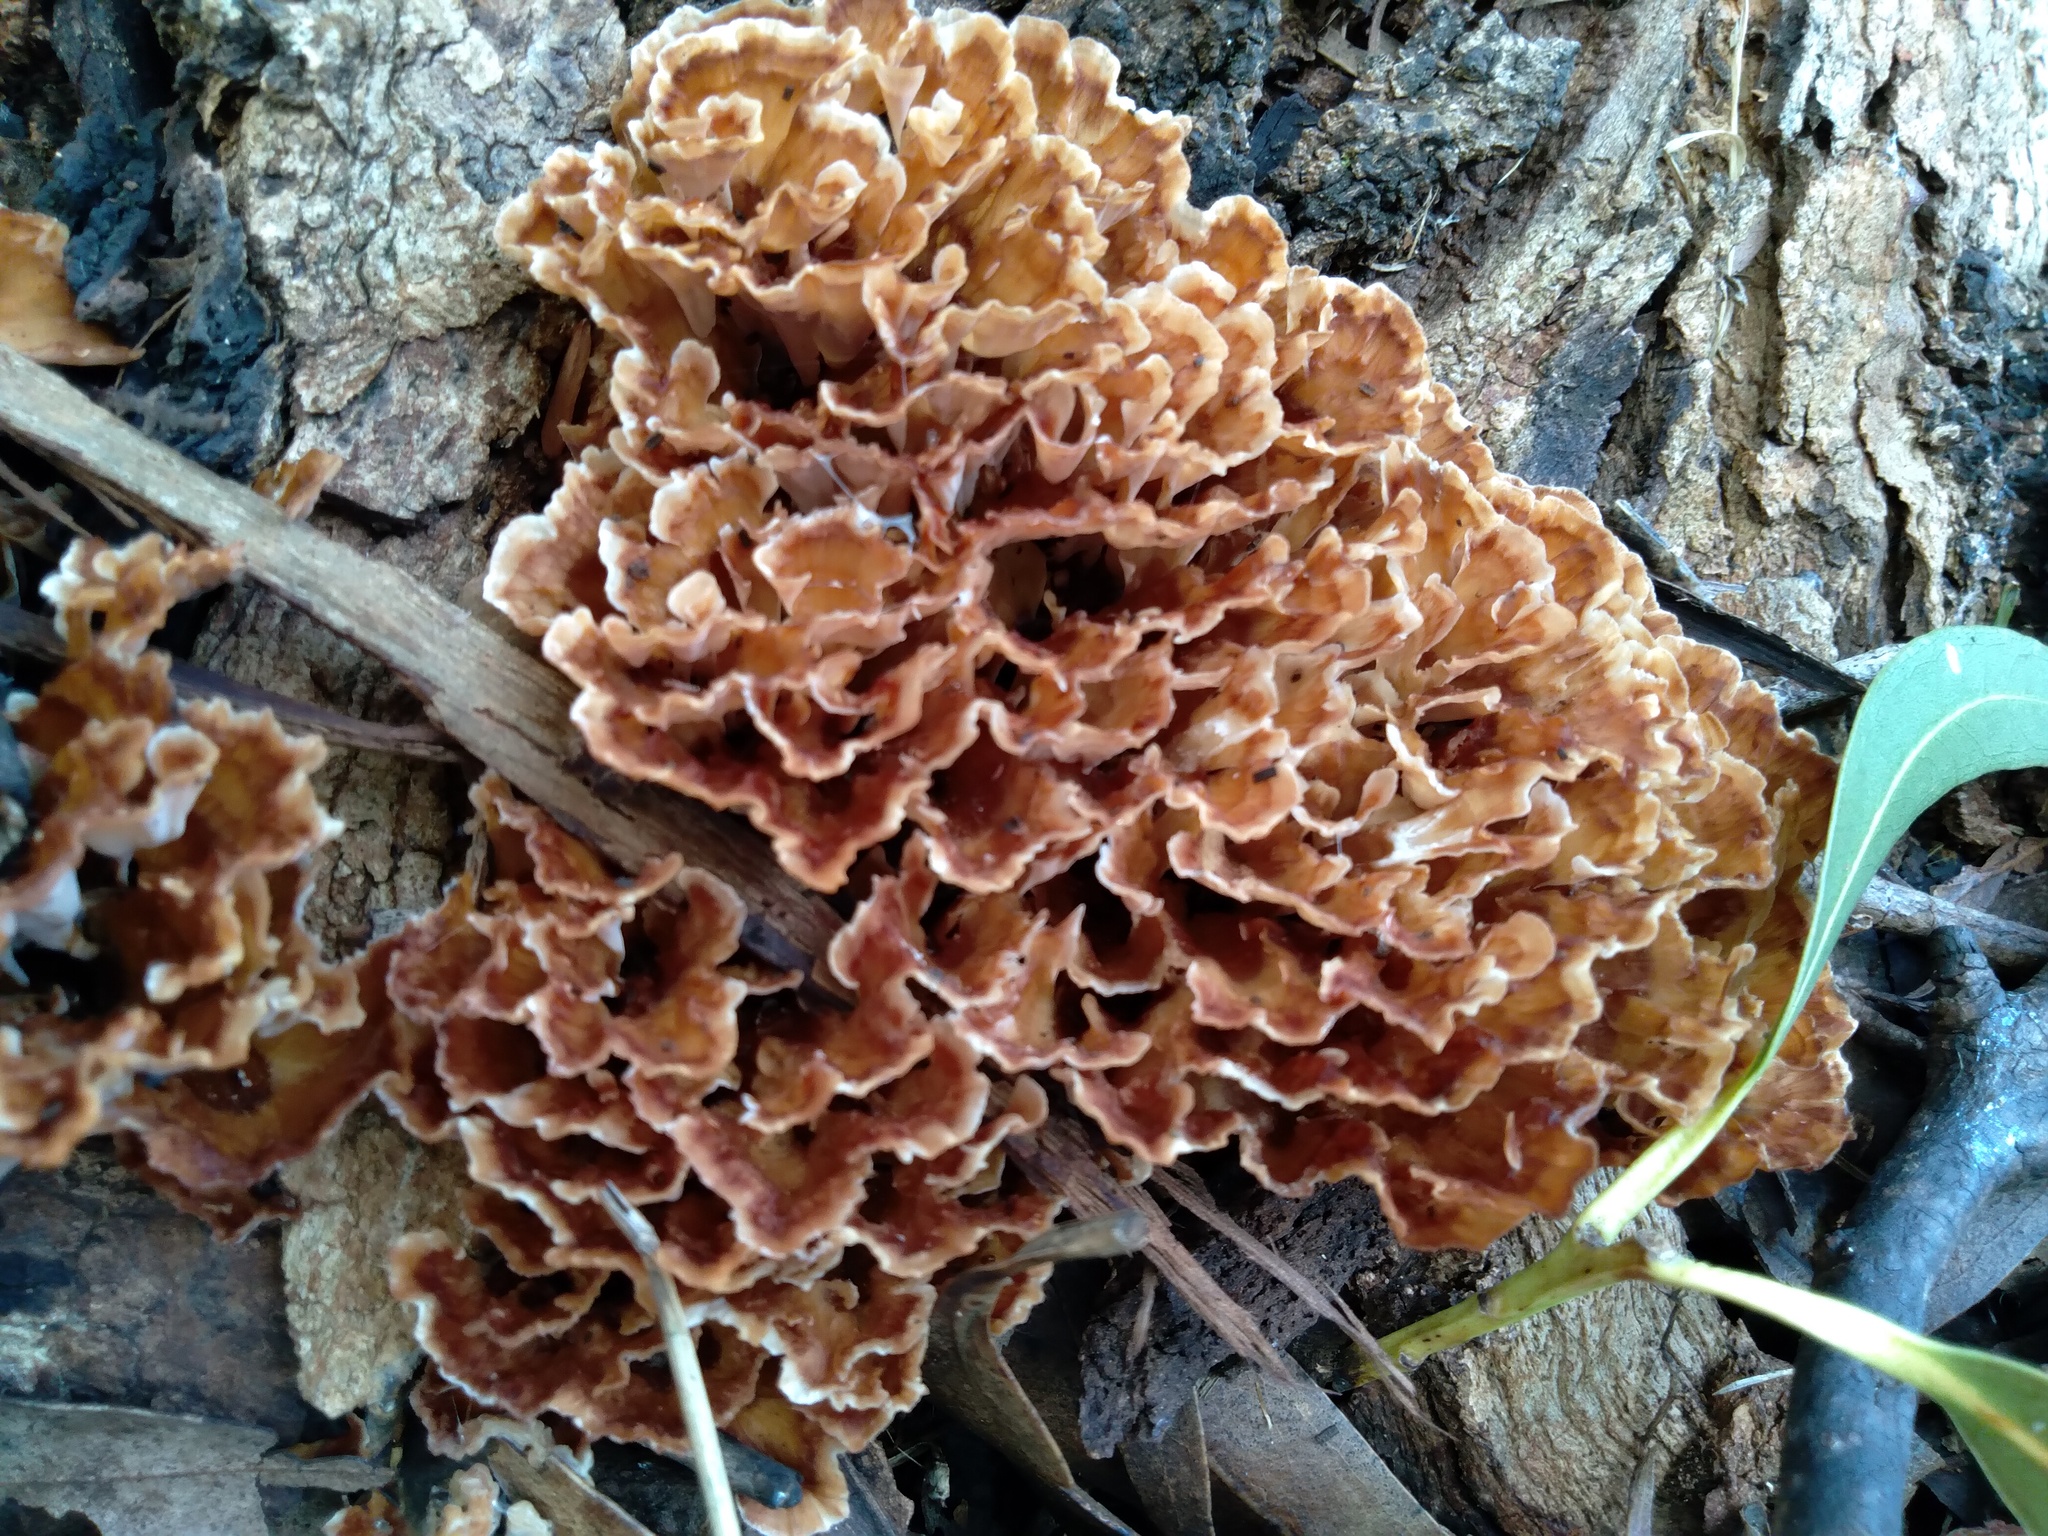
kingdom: Fungi
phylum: Basidiomycota
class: Agaricomycetes
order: Polyporales
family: Podoscyphaceae
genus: Podoscypha
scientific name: Podoscypha petalodes
